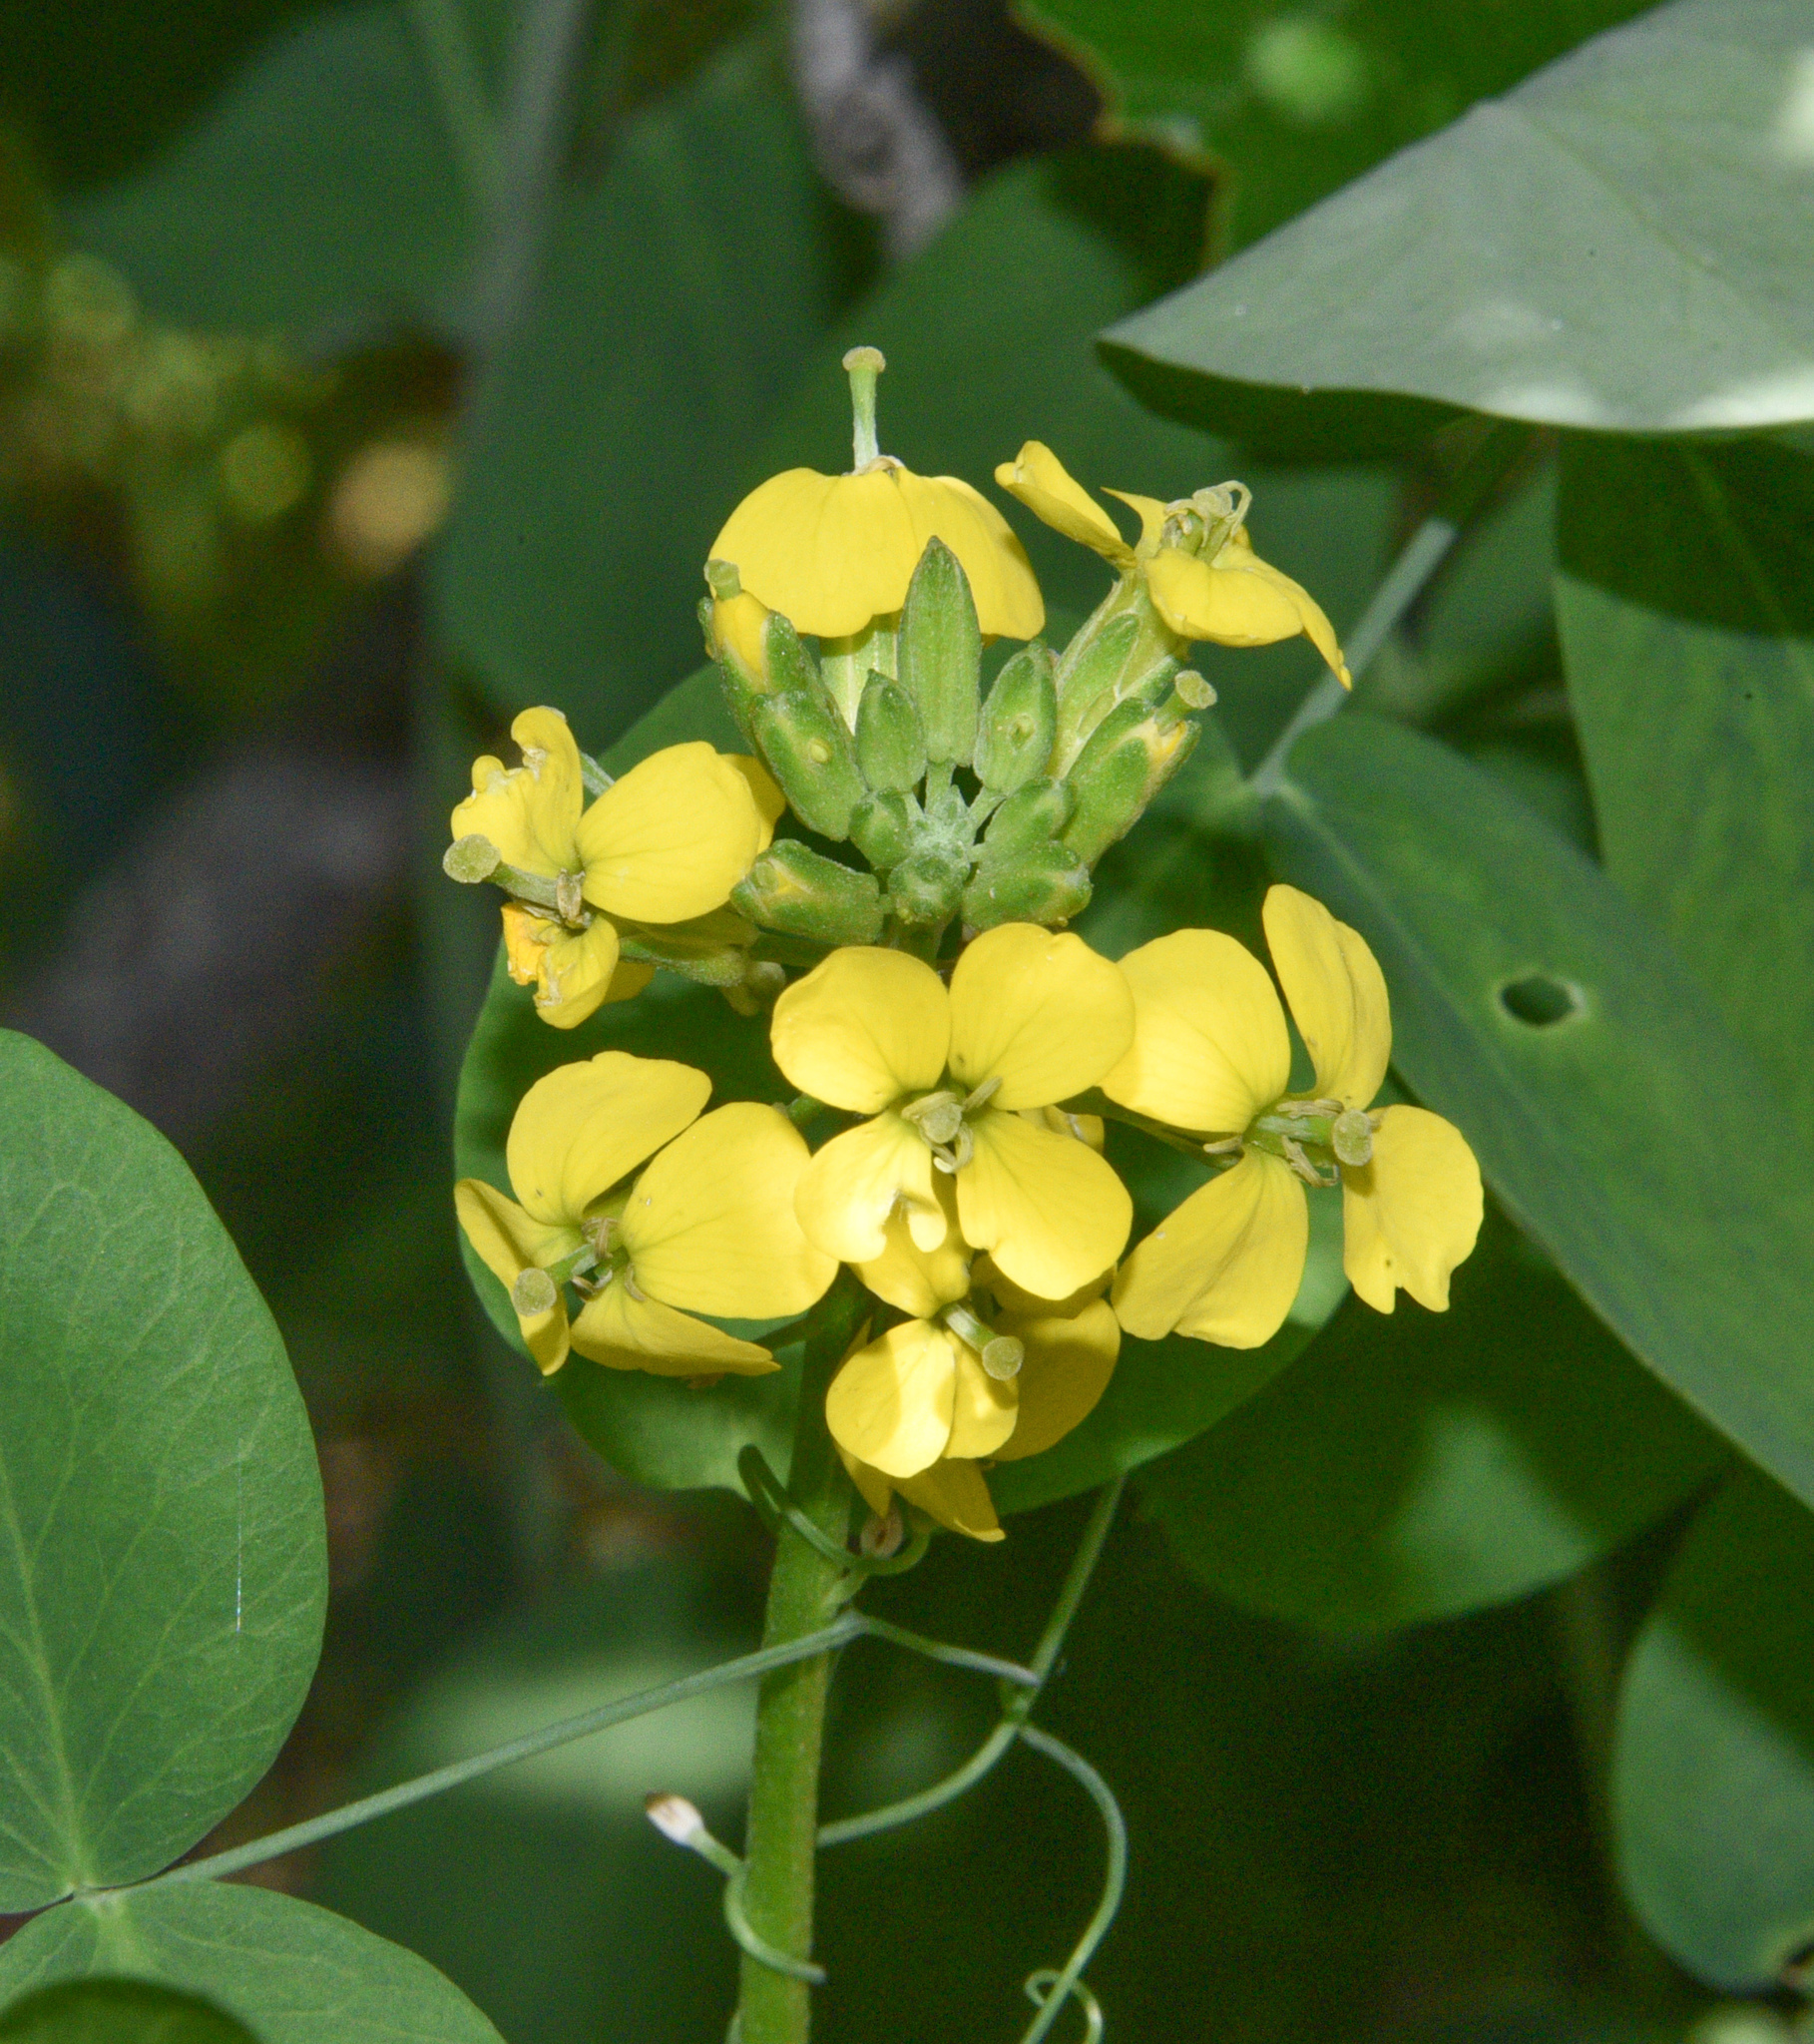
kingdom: Plantae
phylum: Tracheophyta
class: Magnoliopsida
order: Brassicales
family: Brassicaceae
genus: Erysimum
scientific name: Erysimum capitatum
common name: Western wallflower
